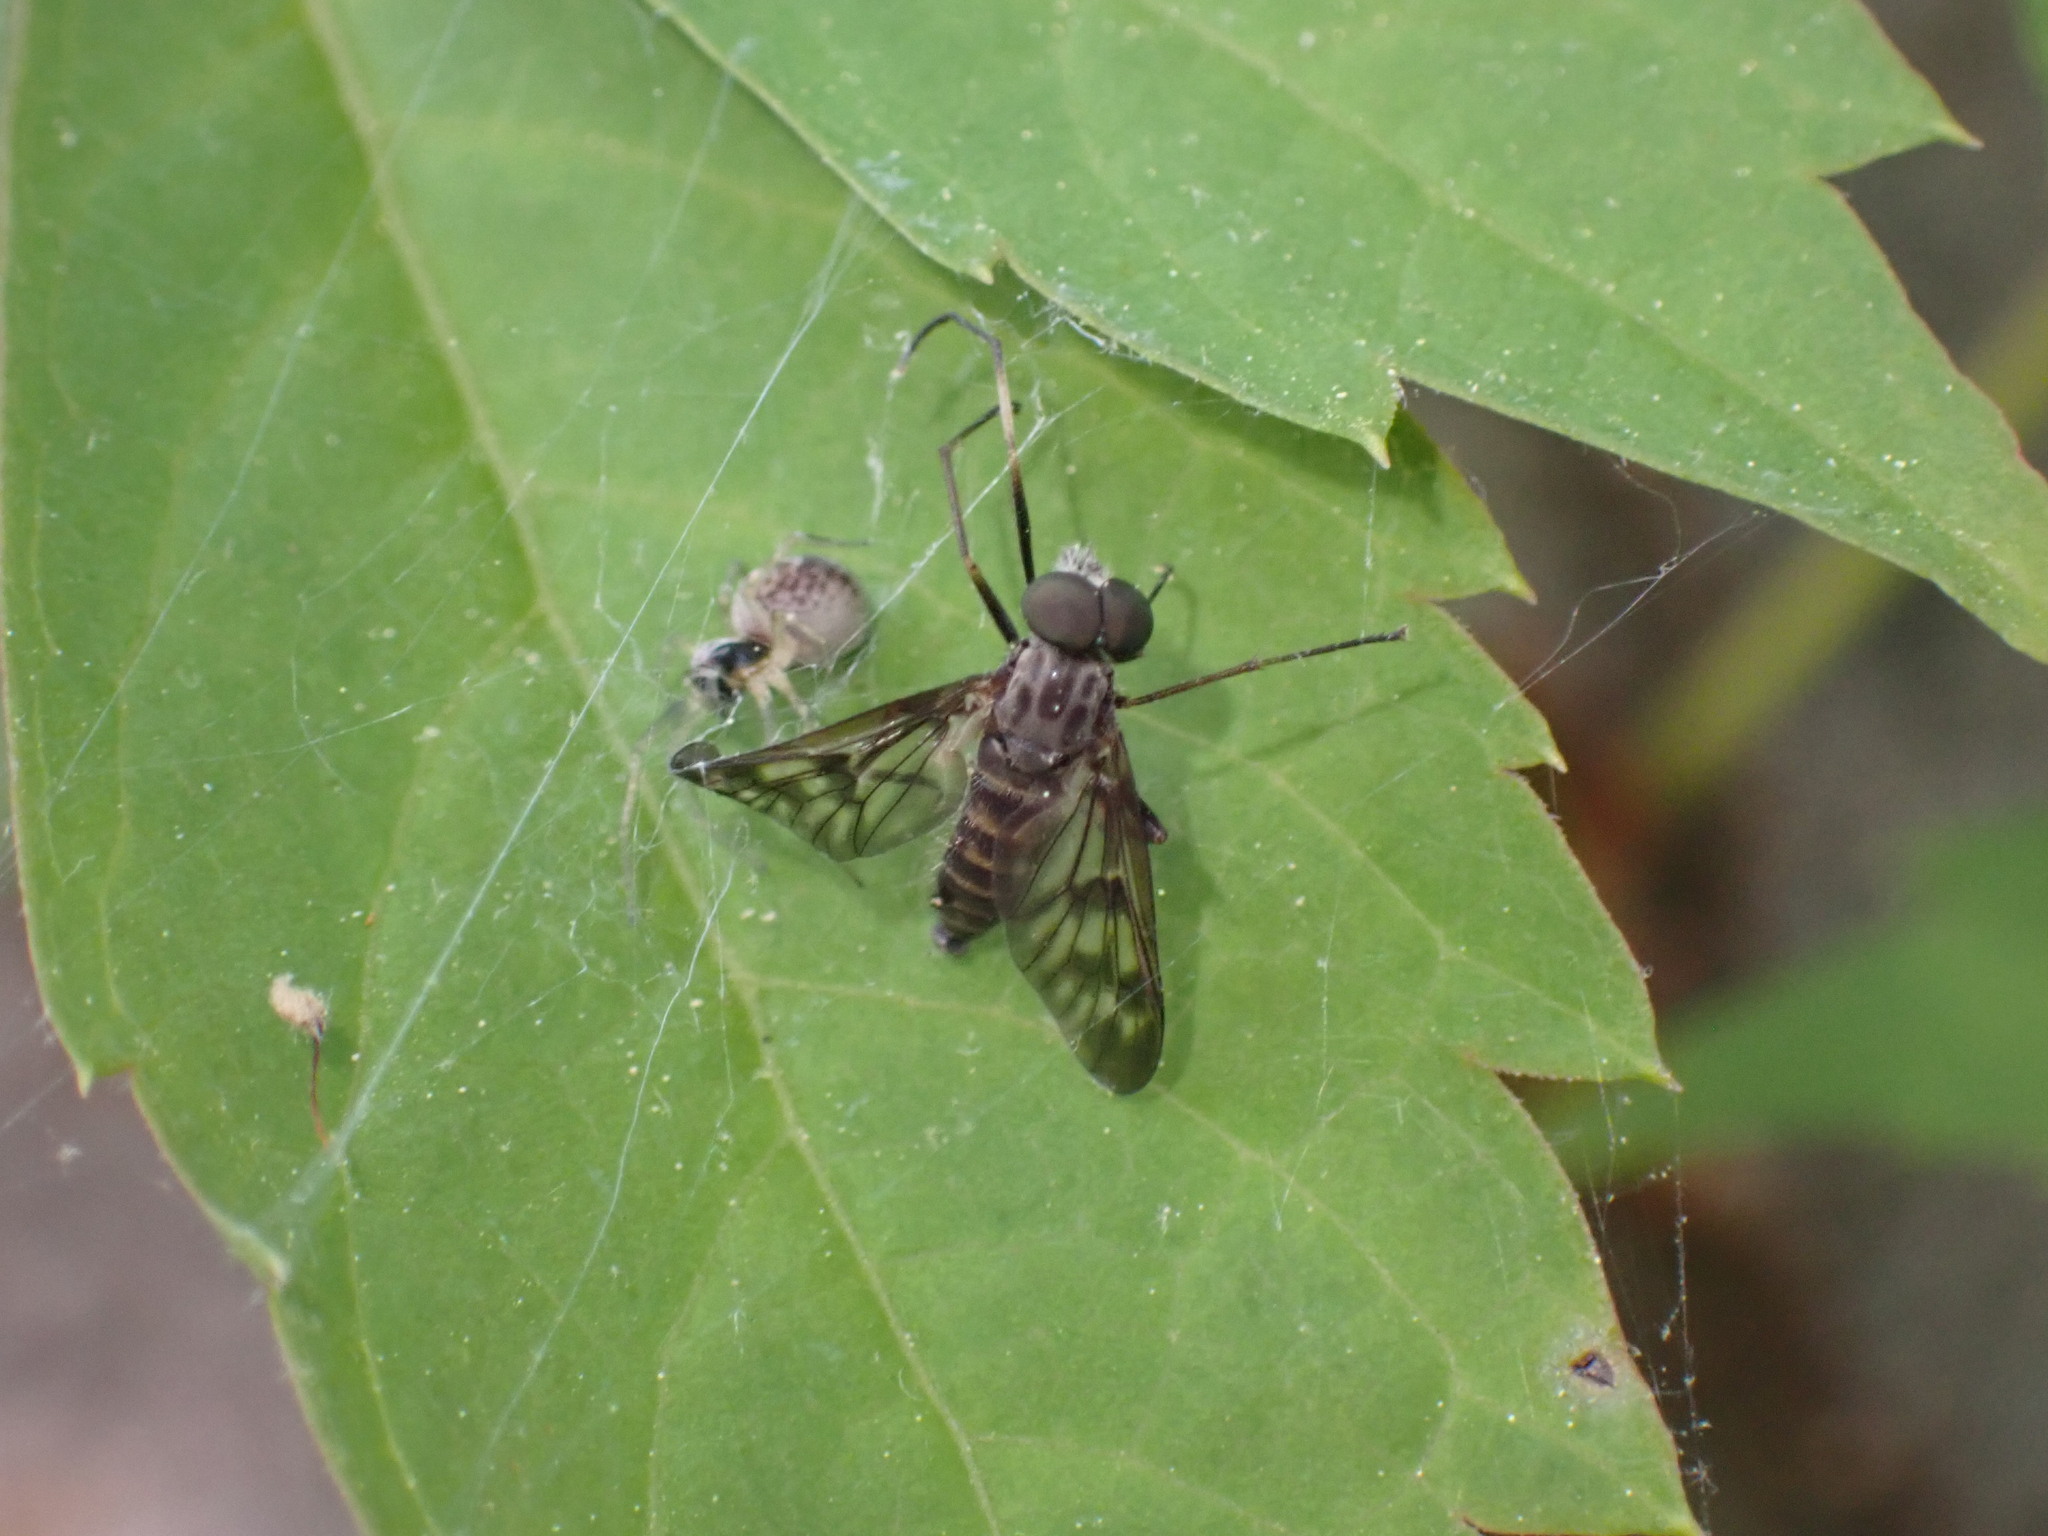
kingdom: Animalia
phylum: Arthropoda
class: Insecta
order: Diptera
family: Rhagionidae
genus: Rhagio
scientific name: Rhagio mystaceus
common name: Common snipe fly
